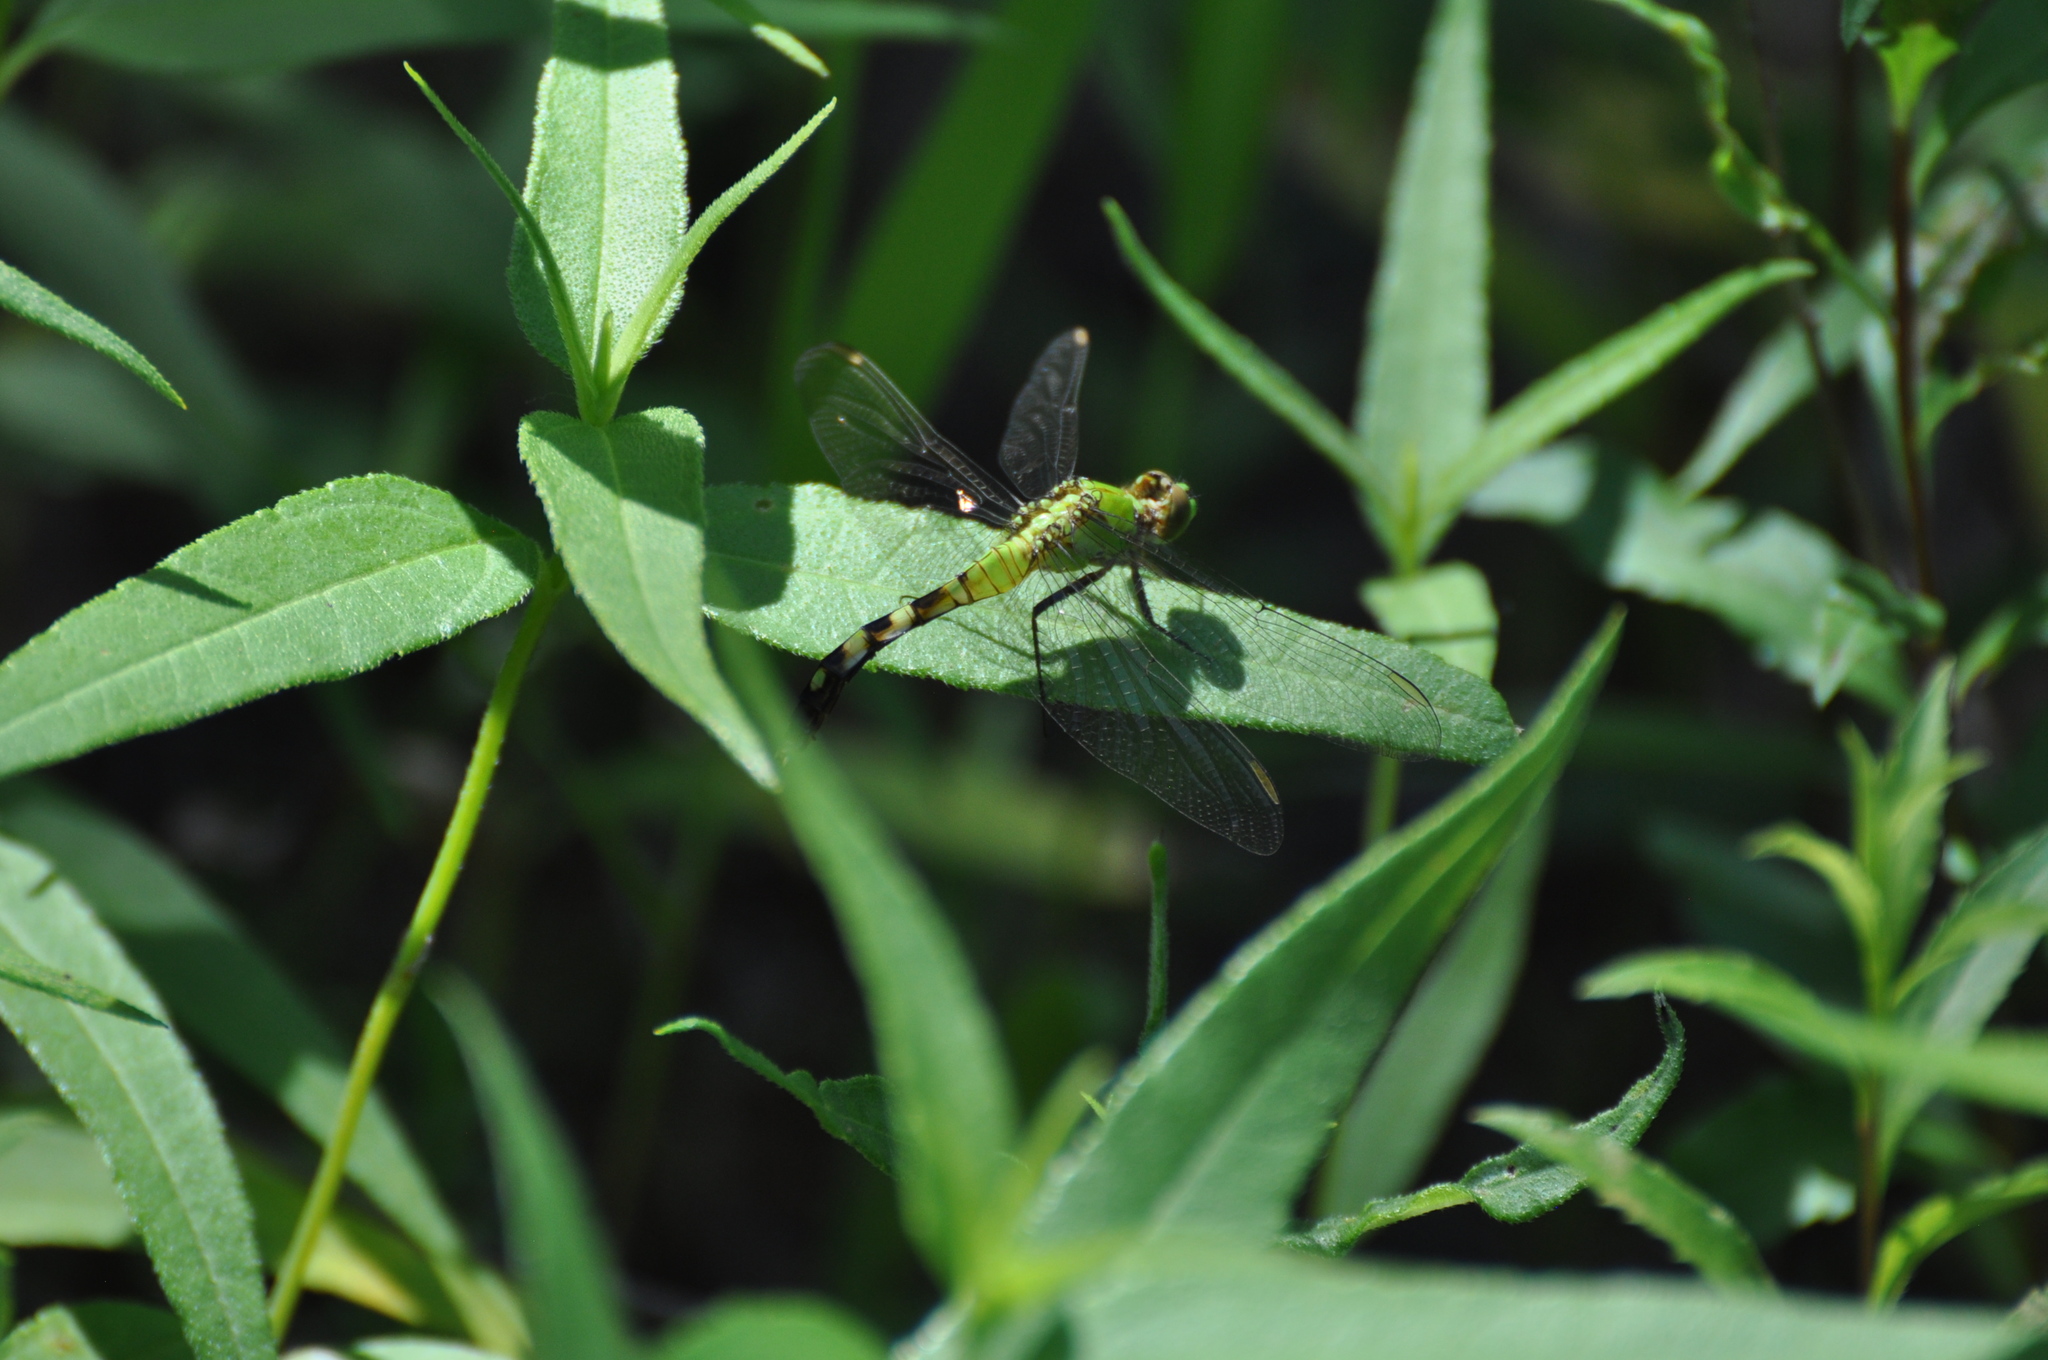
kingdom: Animalia
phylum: Arthropoda
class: Insecta
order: Odonata
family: Libellulidae
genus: Erythemis
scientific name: Erythemis simplicicollis
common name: Eastern pondhawk
